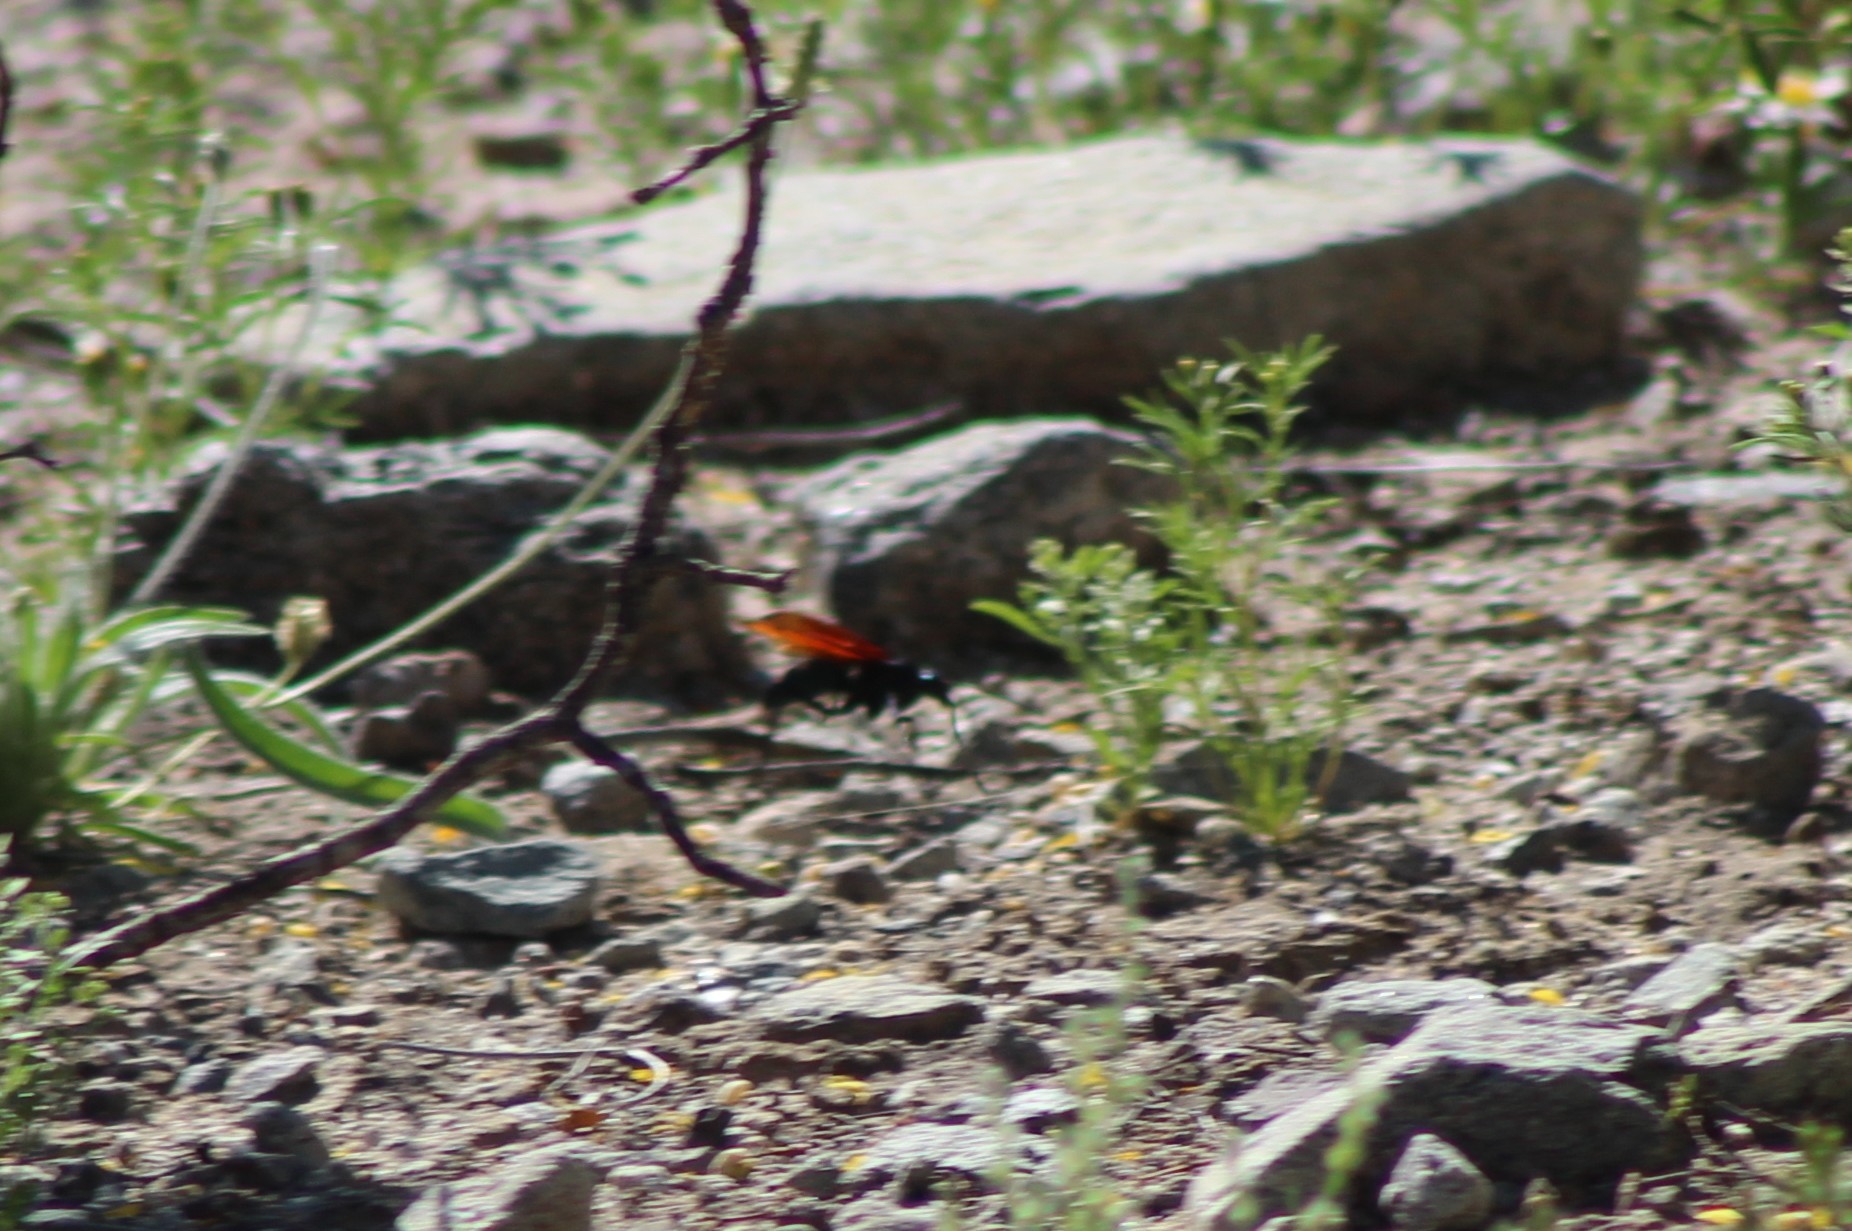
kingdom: Animalia
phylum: Arthropoda
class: Insecta
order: Hymenoptera
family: Pompilidae
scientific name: Pompilidae
